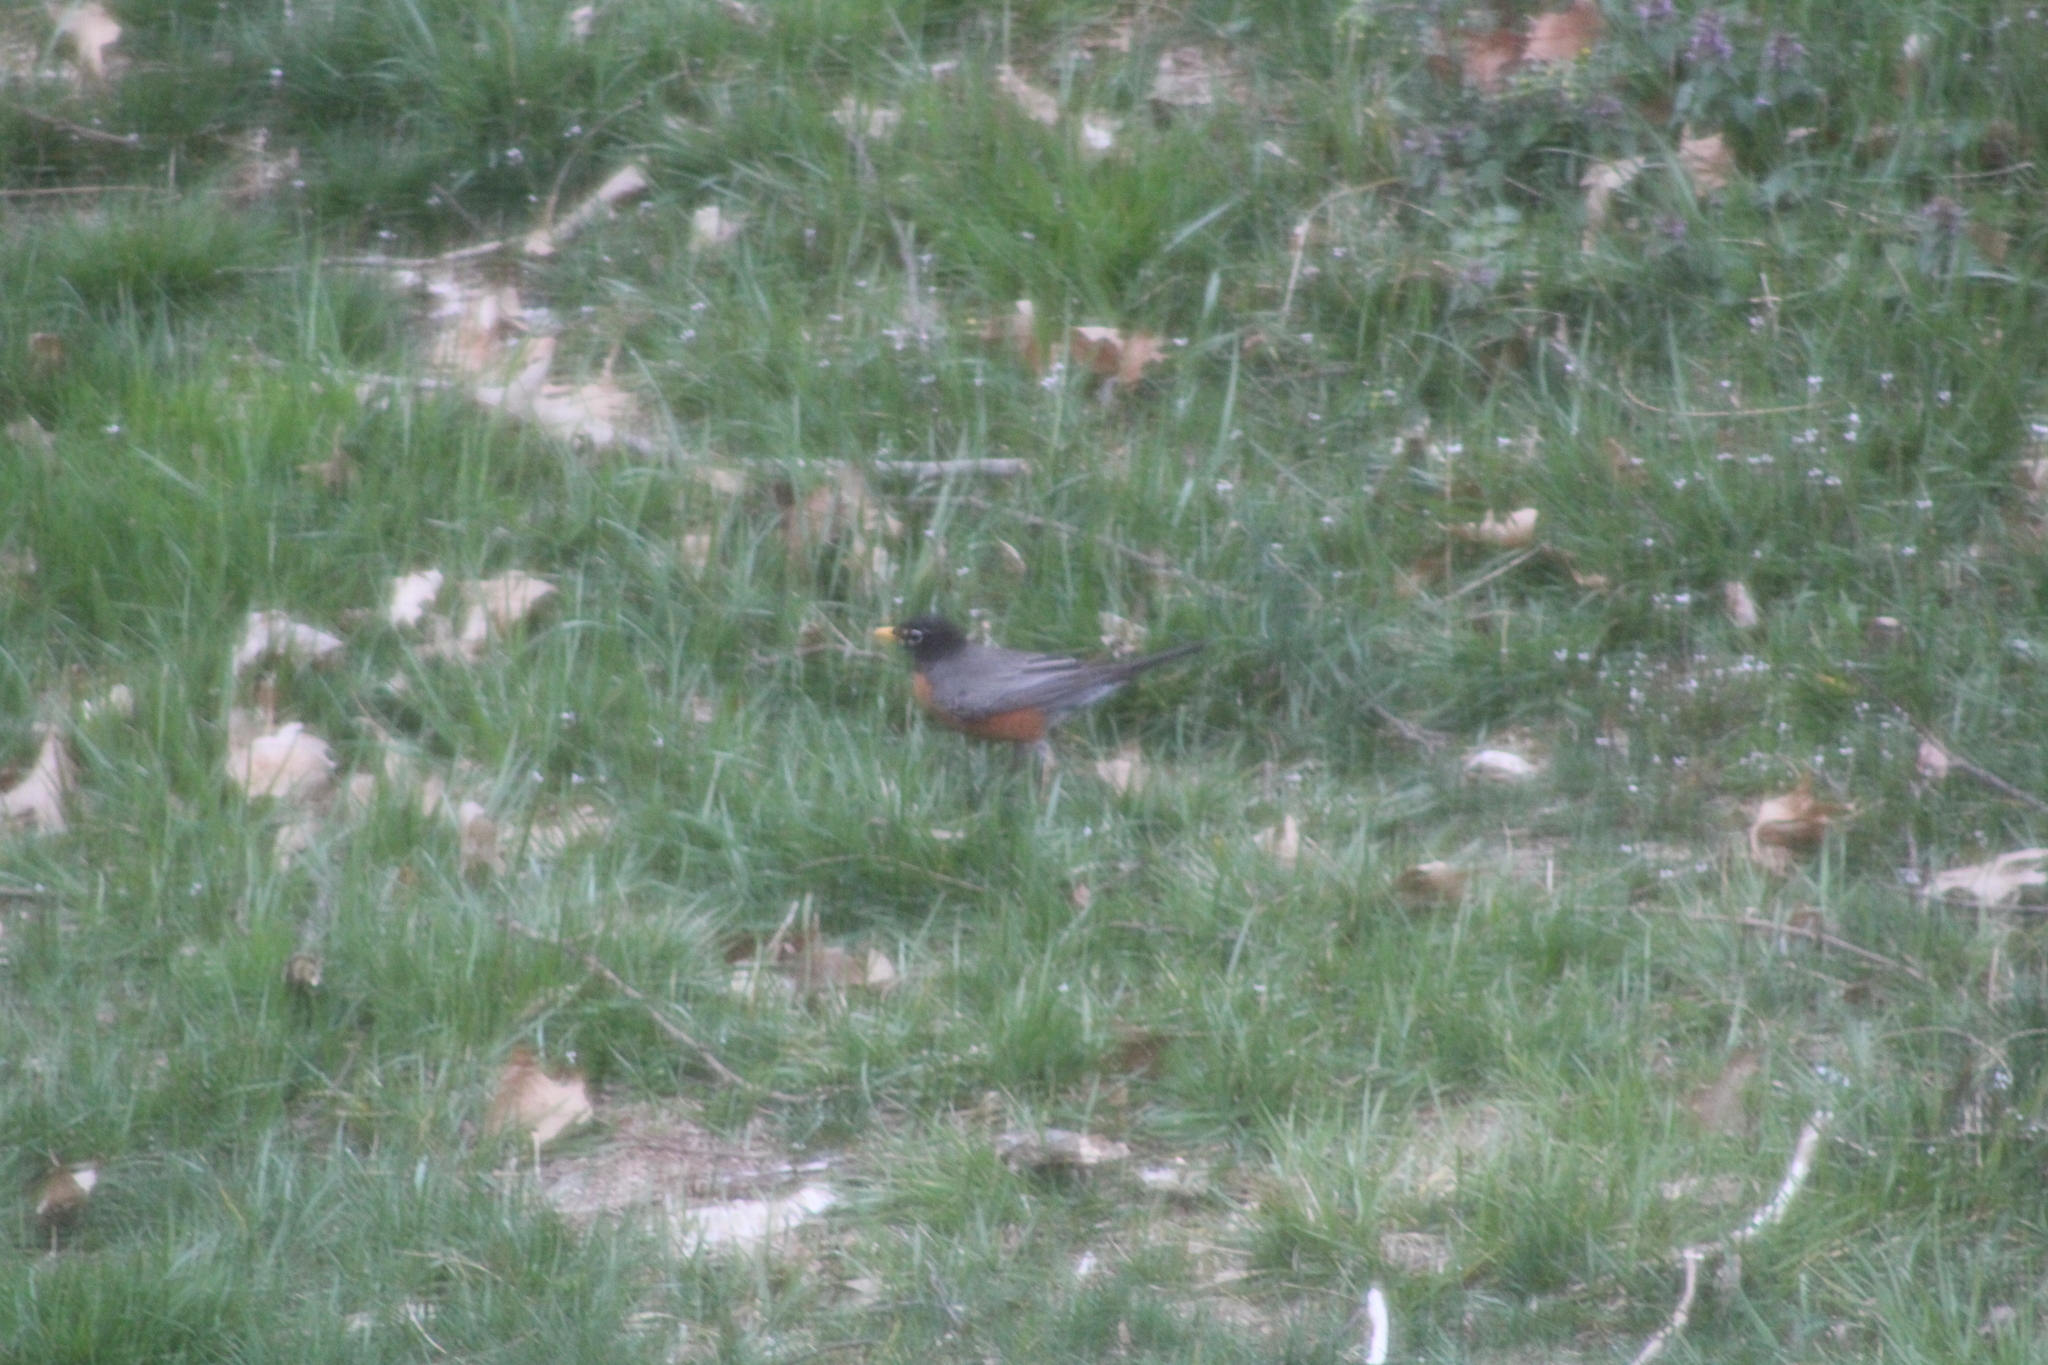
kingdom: Animalia
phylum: Chordata
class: Aves
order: Passeriformes
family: Turdidae
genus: Turdus
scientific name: Turdus migratorius
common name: American robin
